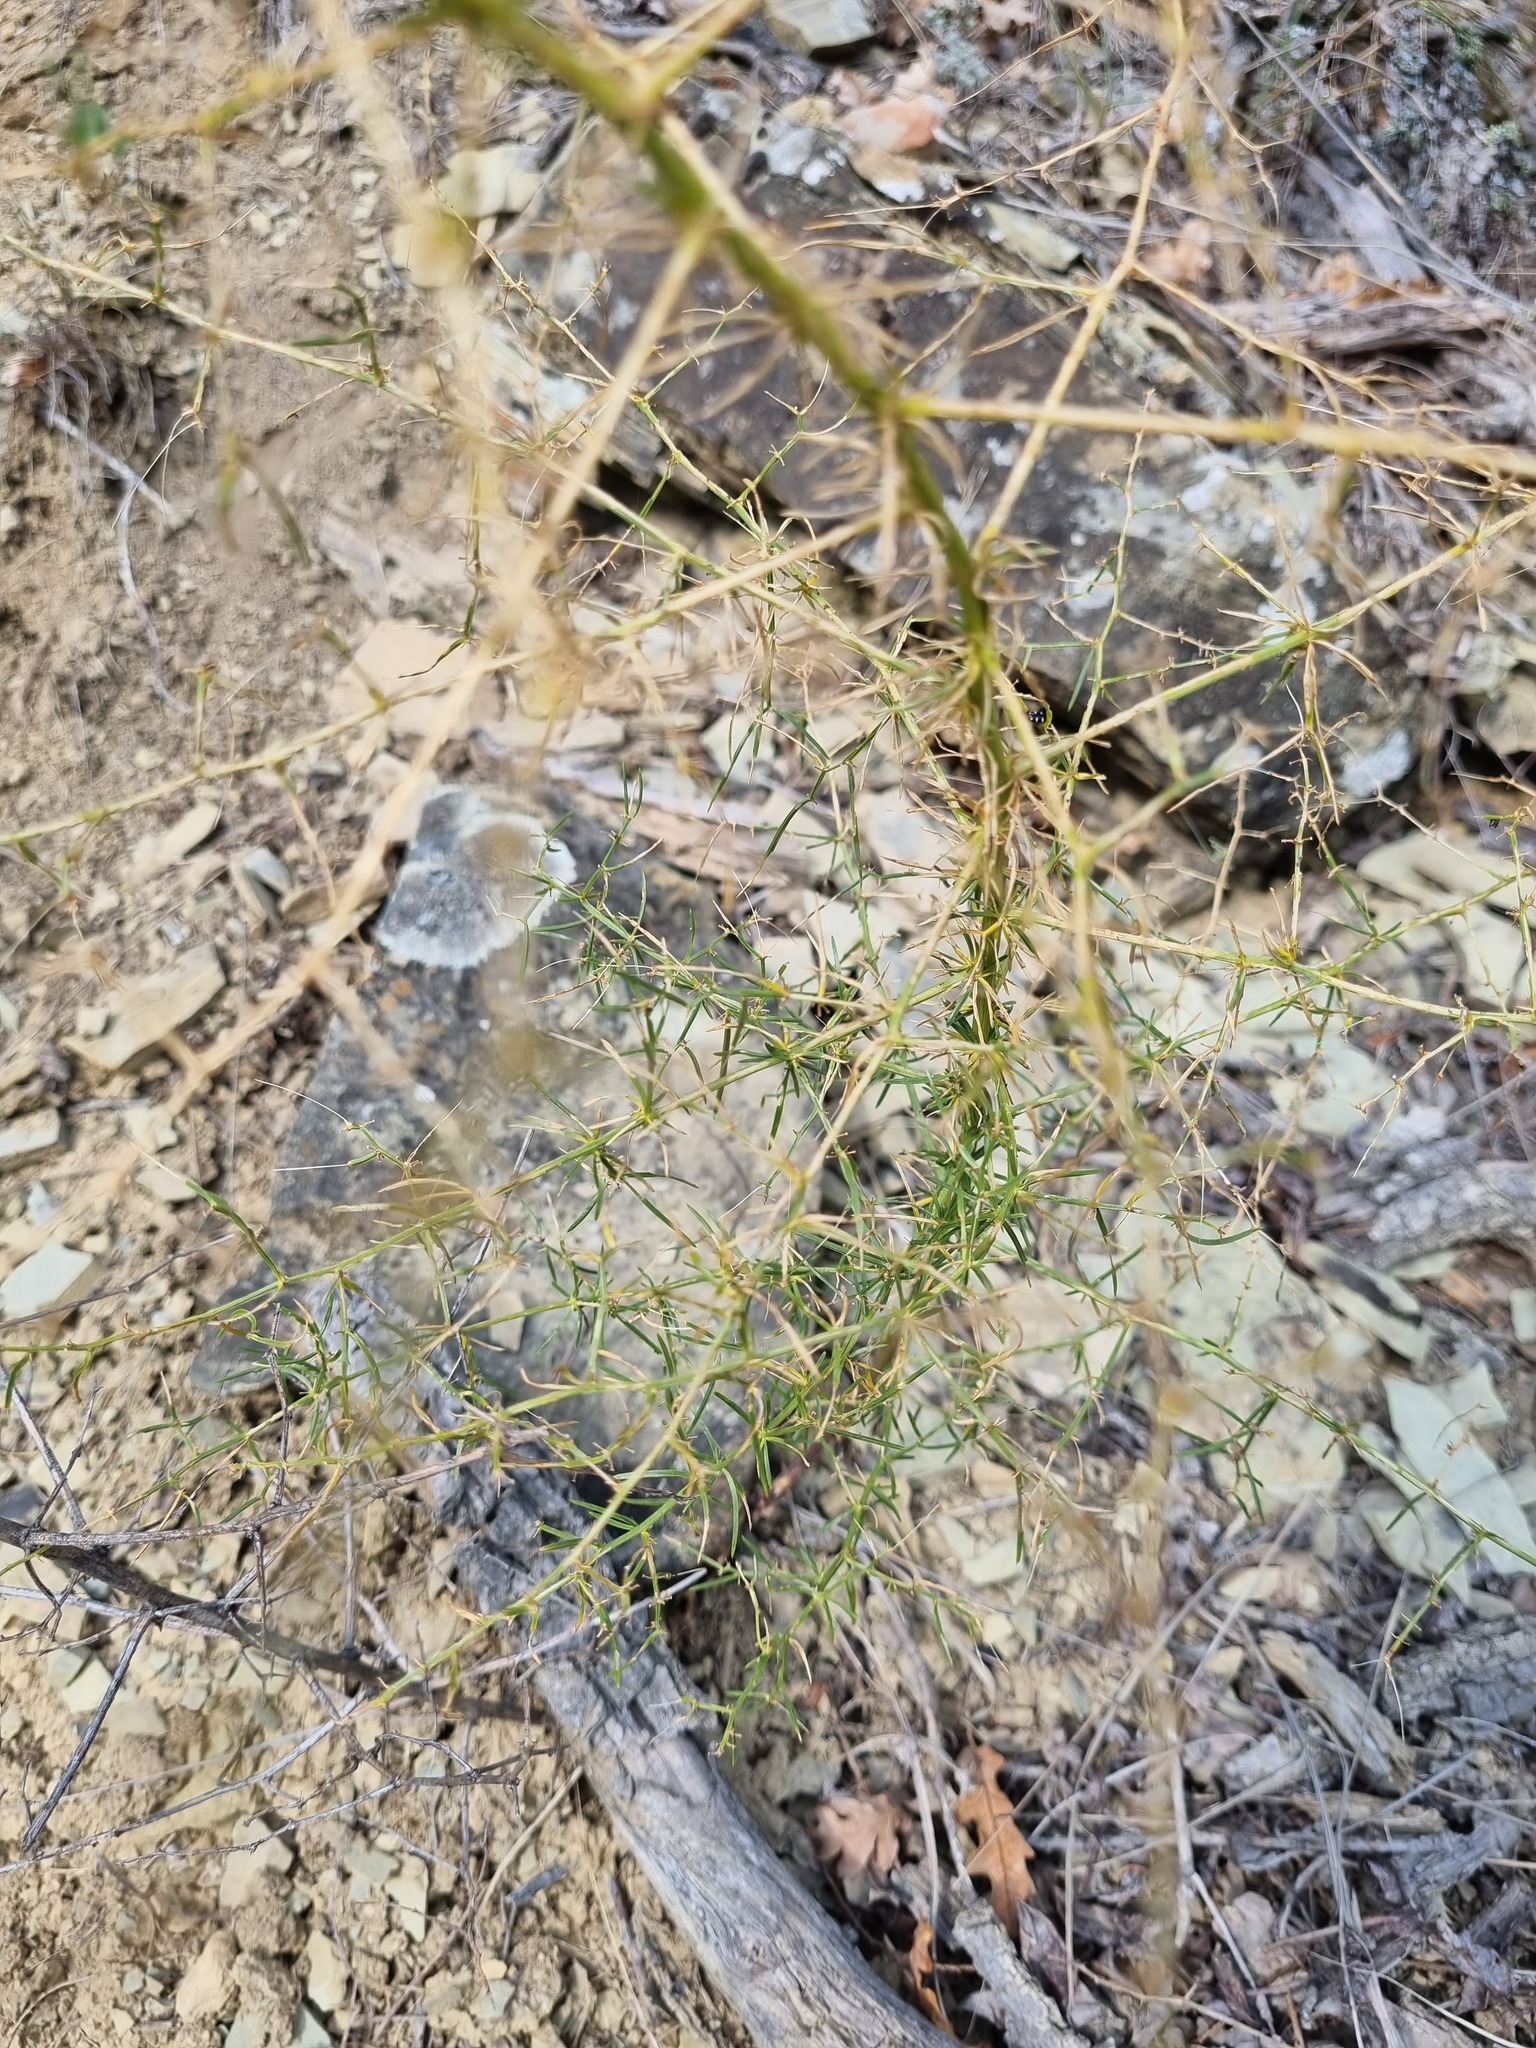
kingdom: Plantae
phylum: Tracheophyta
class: Liliopsida
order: Asparagales
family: Asparagaceae
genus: Asparagus
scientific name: Asparagus verticillatus
